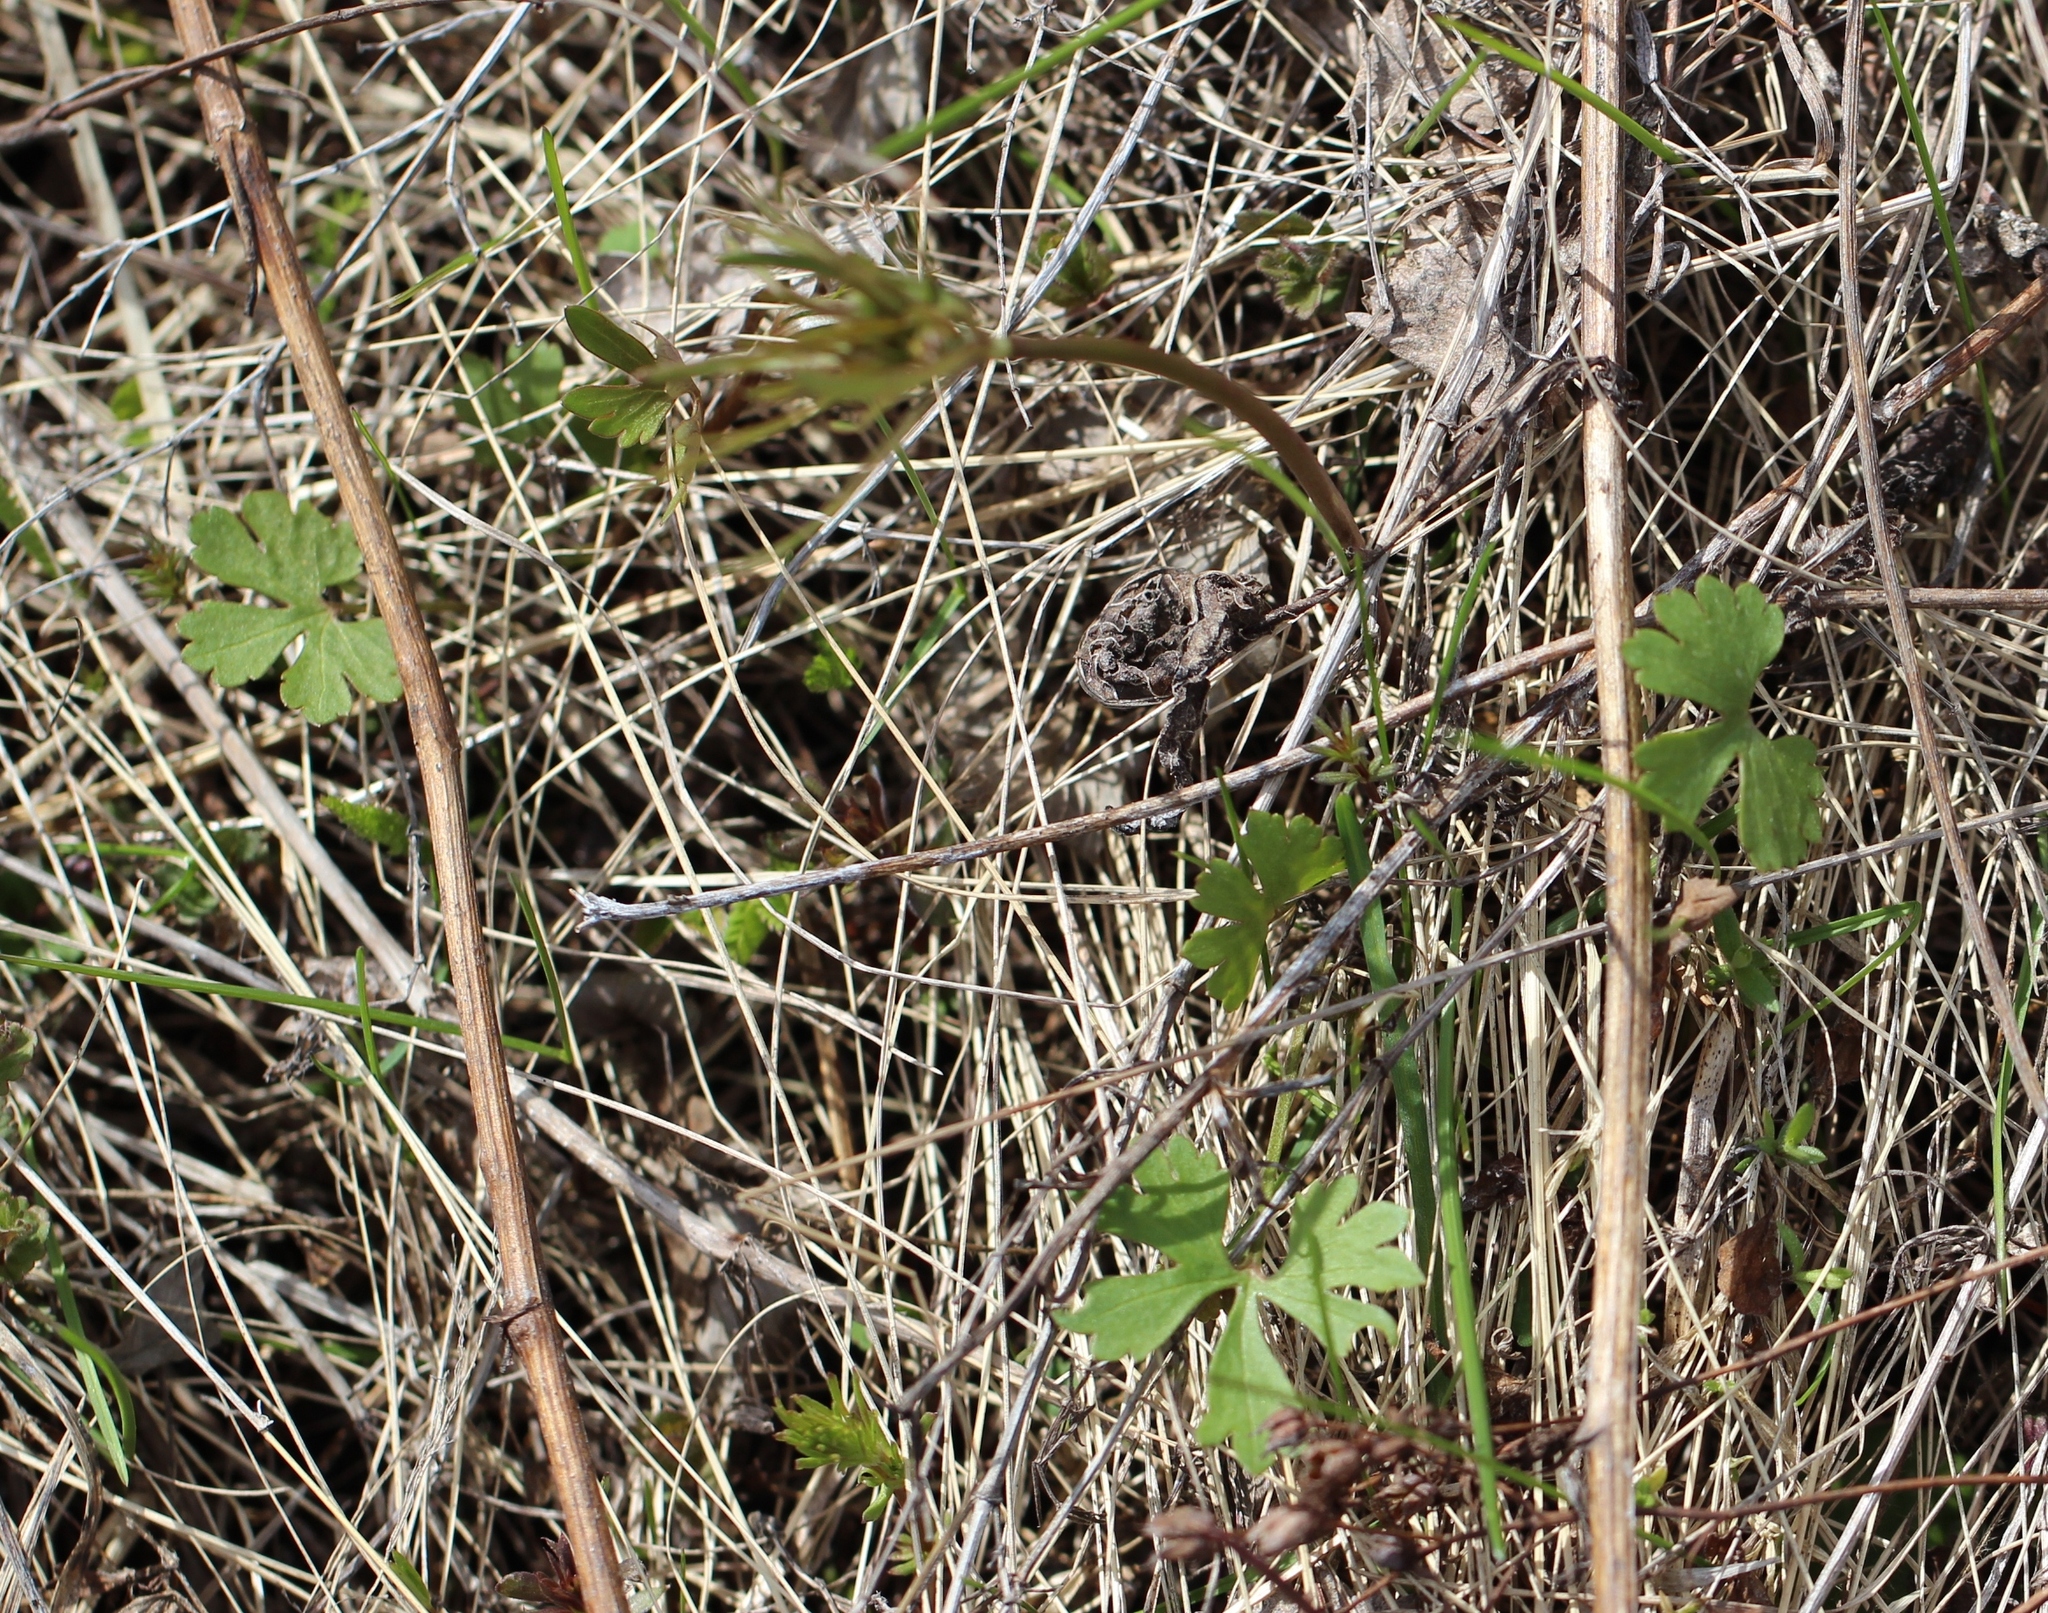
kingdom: Plantae
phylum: Tracheophyta
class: Magnoliopsida
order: Ranunculales
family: Ranunculaceae
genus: Ranunculus
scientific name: Ranunculus auricomus
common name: Goldilocks buttercup
